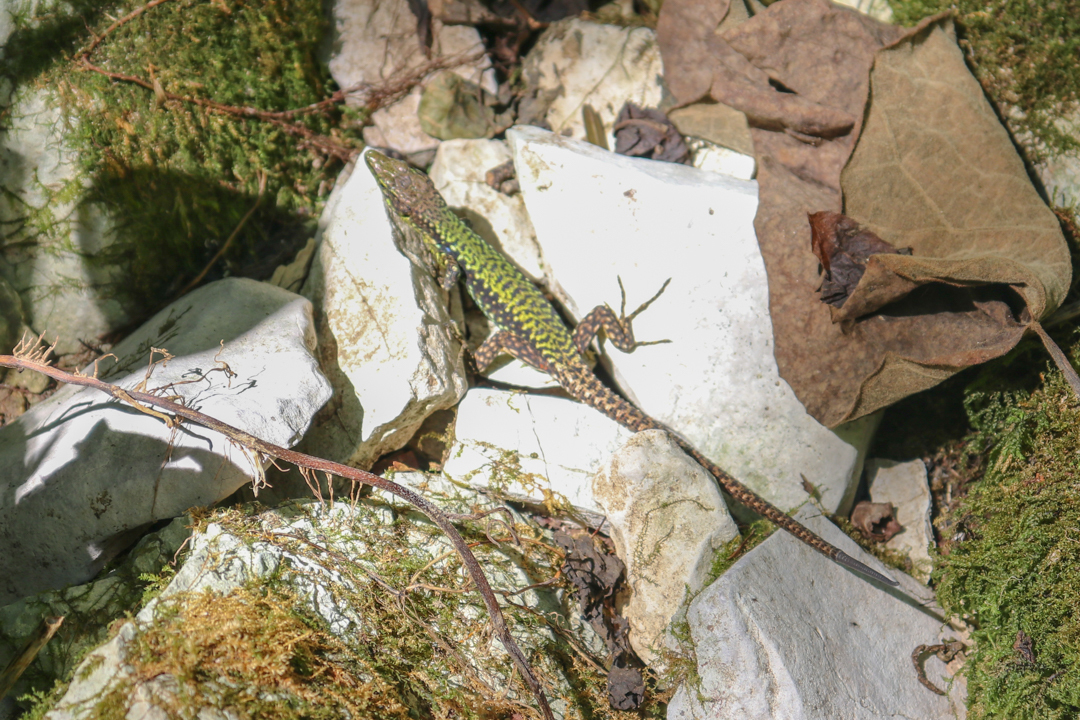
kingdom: Animalia
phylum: Chordata
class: Squamata
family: Lacertidae
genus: Darevskia
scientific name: Darevskia brauneri
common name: Brauner's rock lizard
